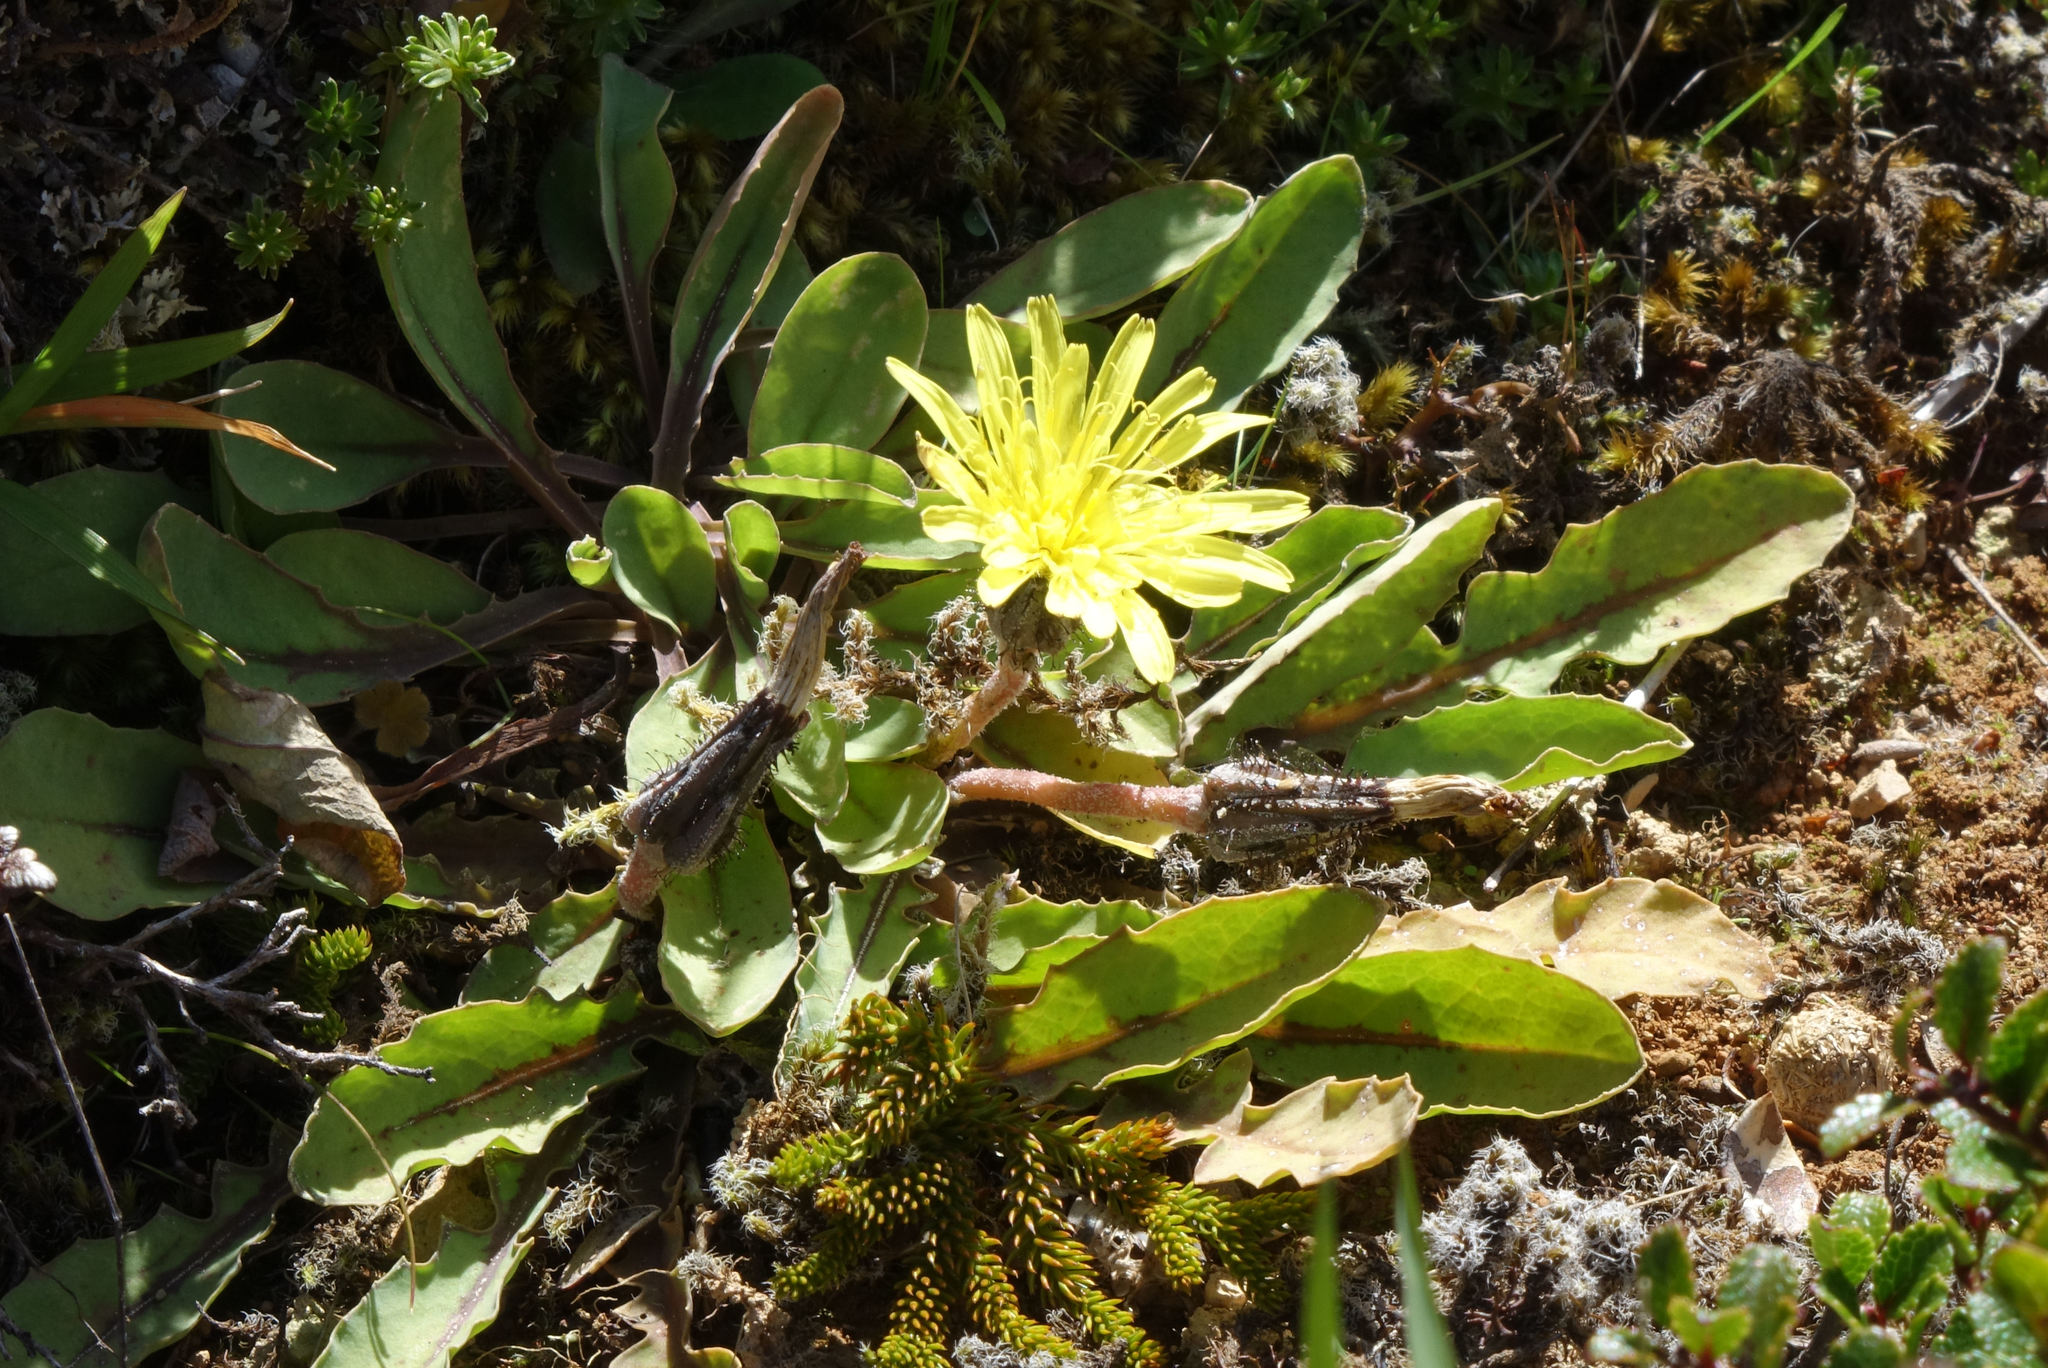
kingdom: Plantae
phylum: Tracheophyta
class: Magnoliopsida
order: Asterales
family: Asteraceae
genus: Sonchus
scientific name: Sonchus novae-zelandiae
